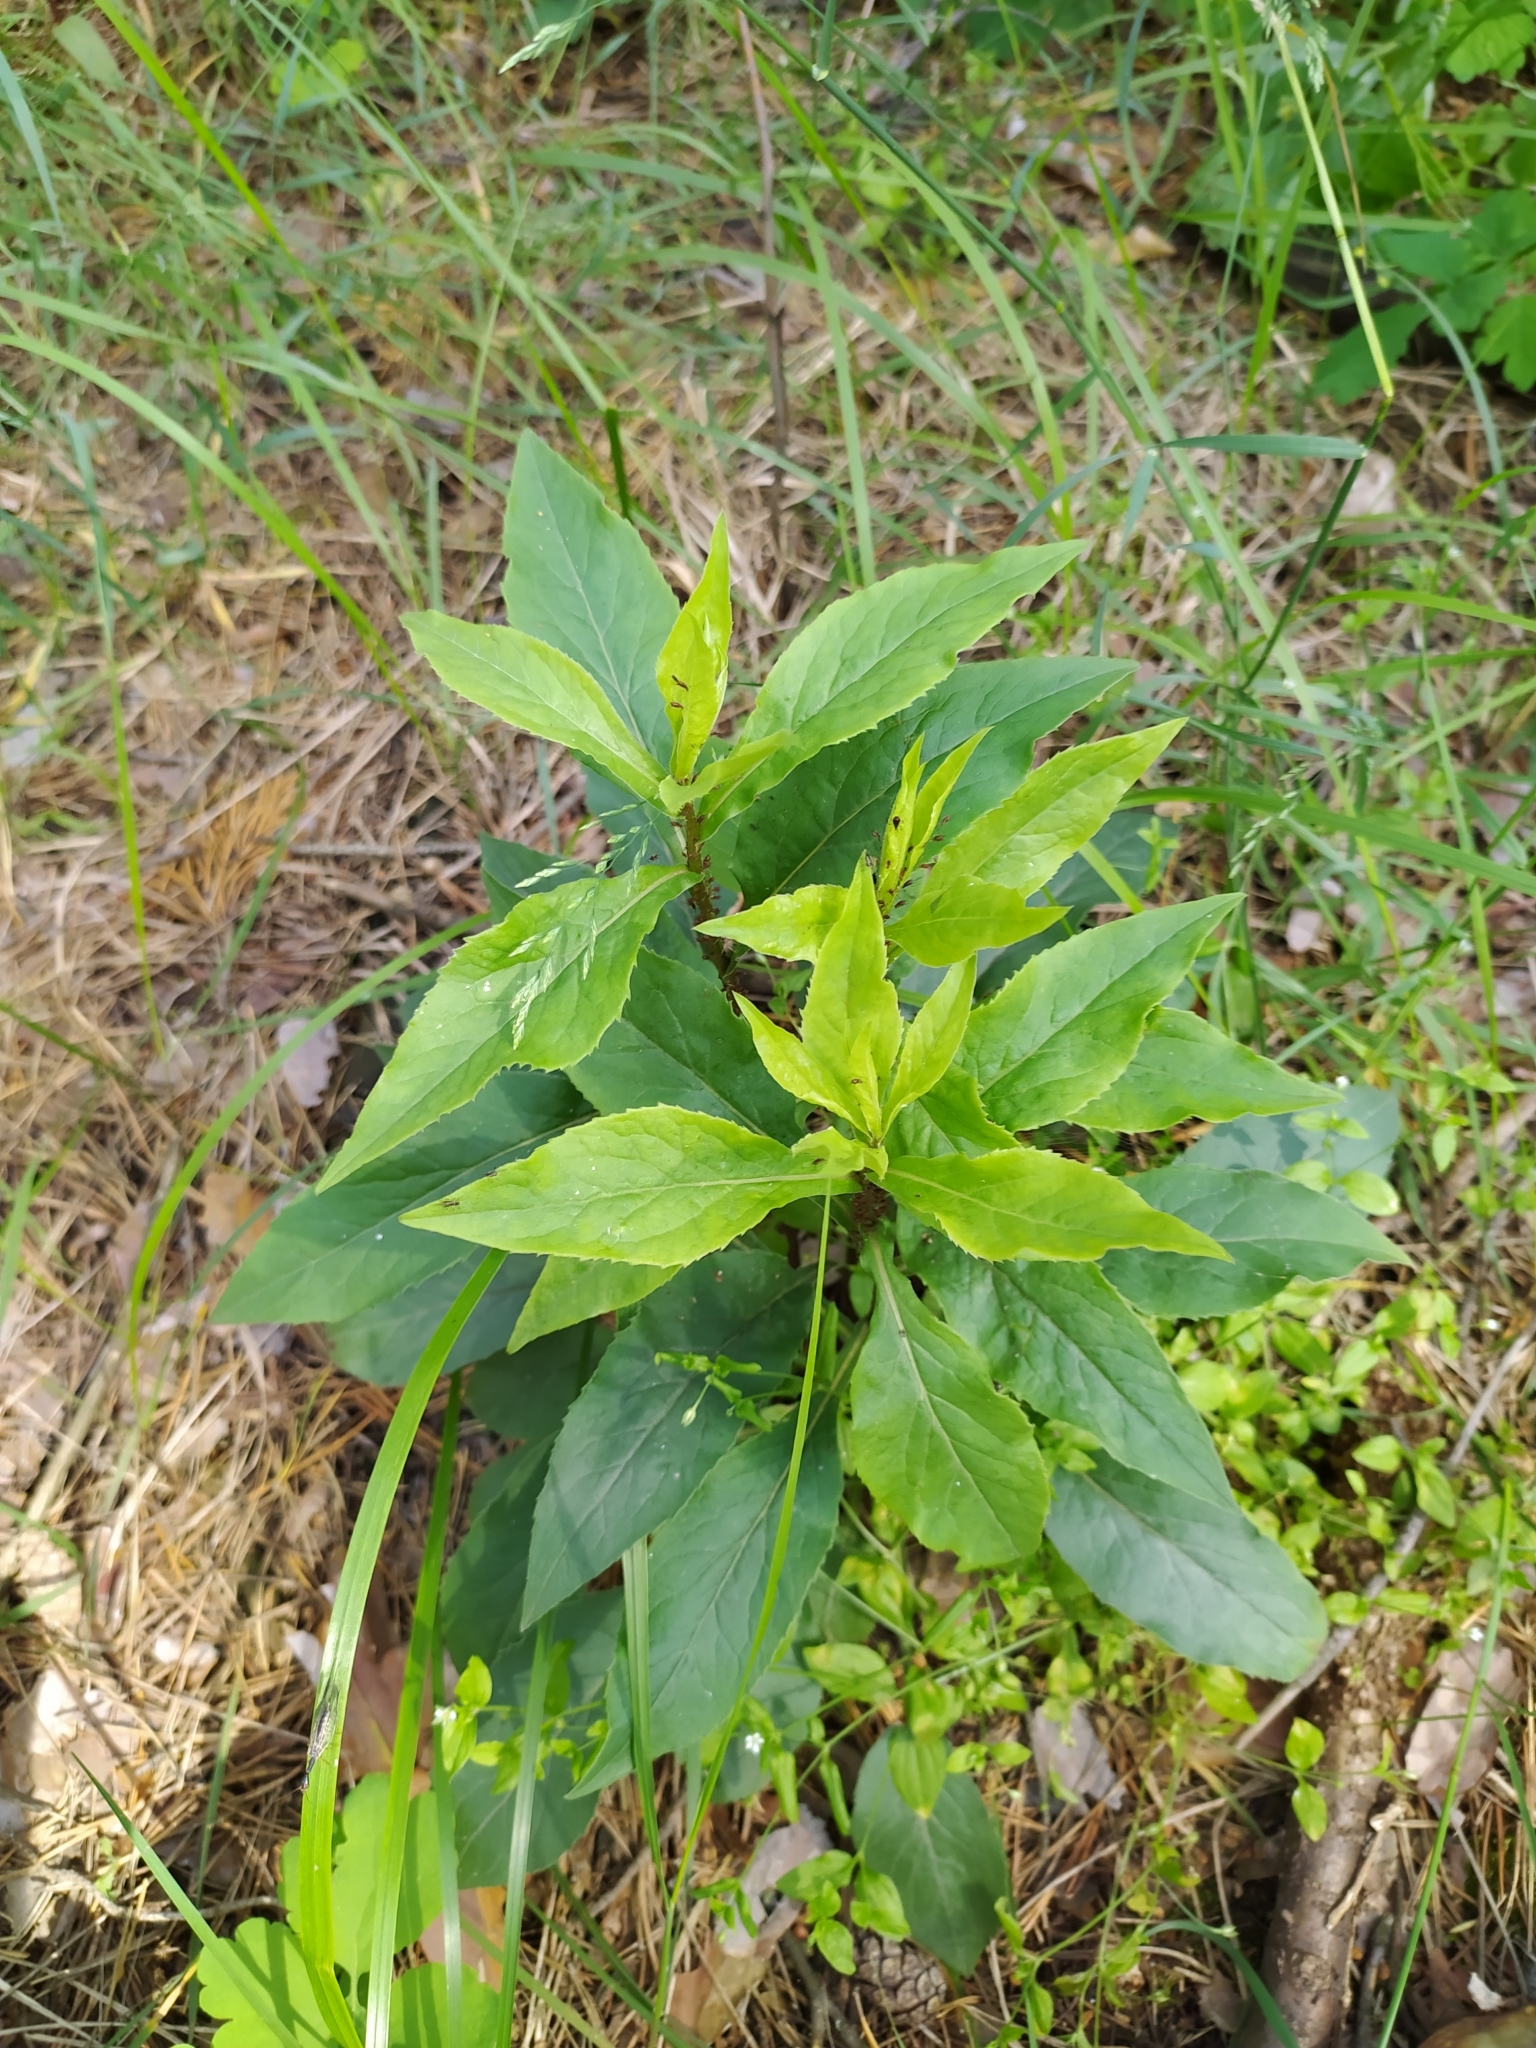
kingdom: Plantae
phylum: Tracheophyta
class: Magnoliopsida
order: Asterales
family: Asteraceae
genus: Solidago
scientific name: Solidago virgaurea
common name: Goldenrod
